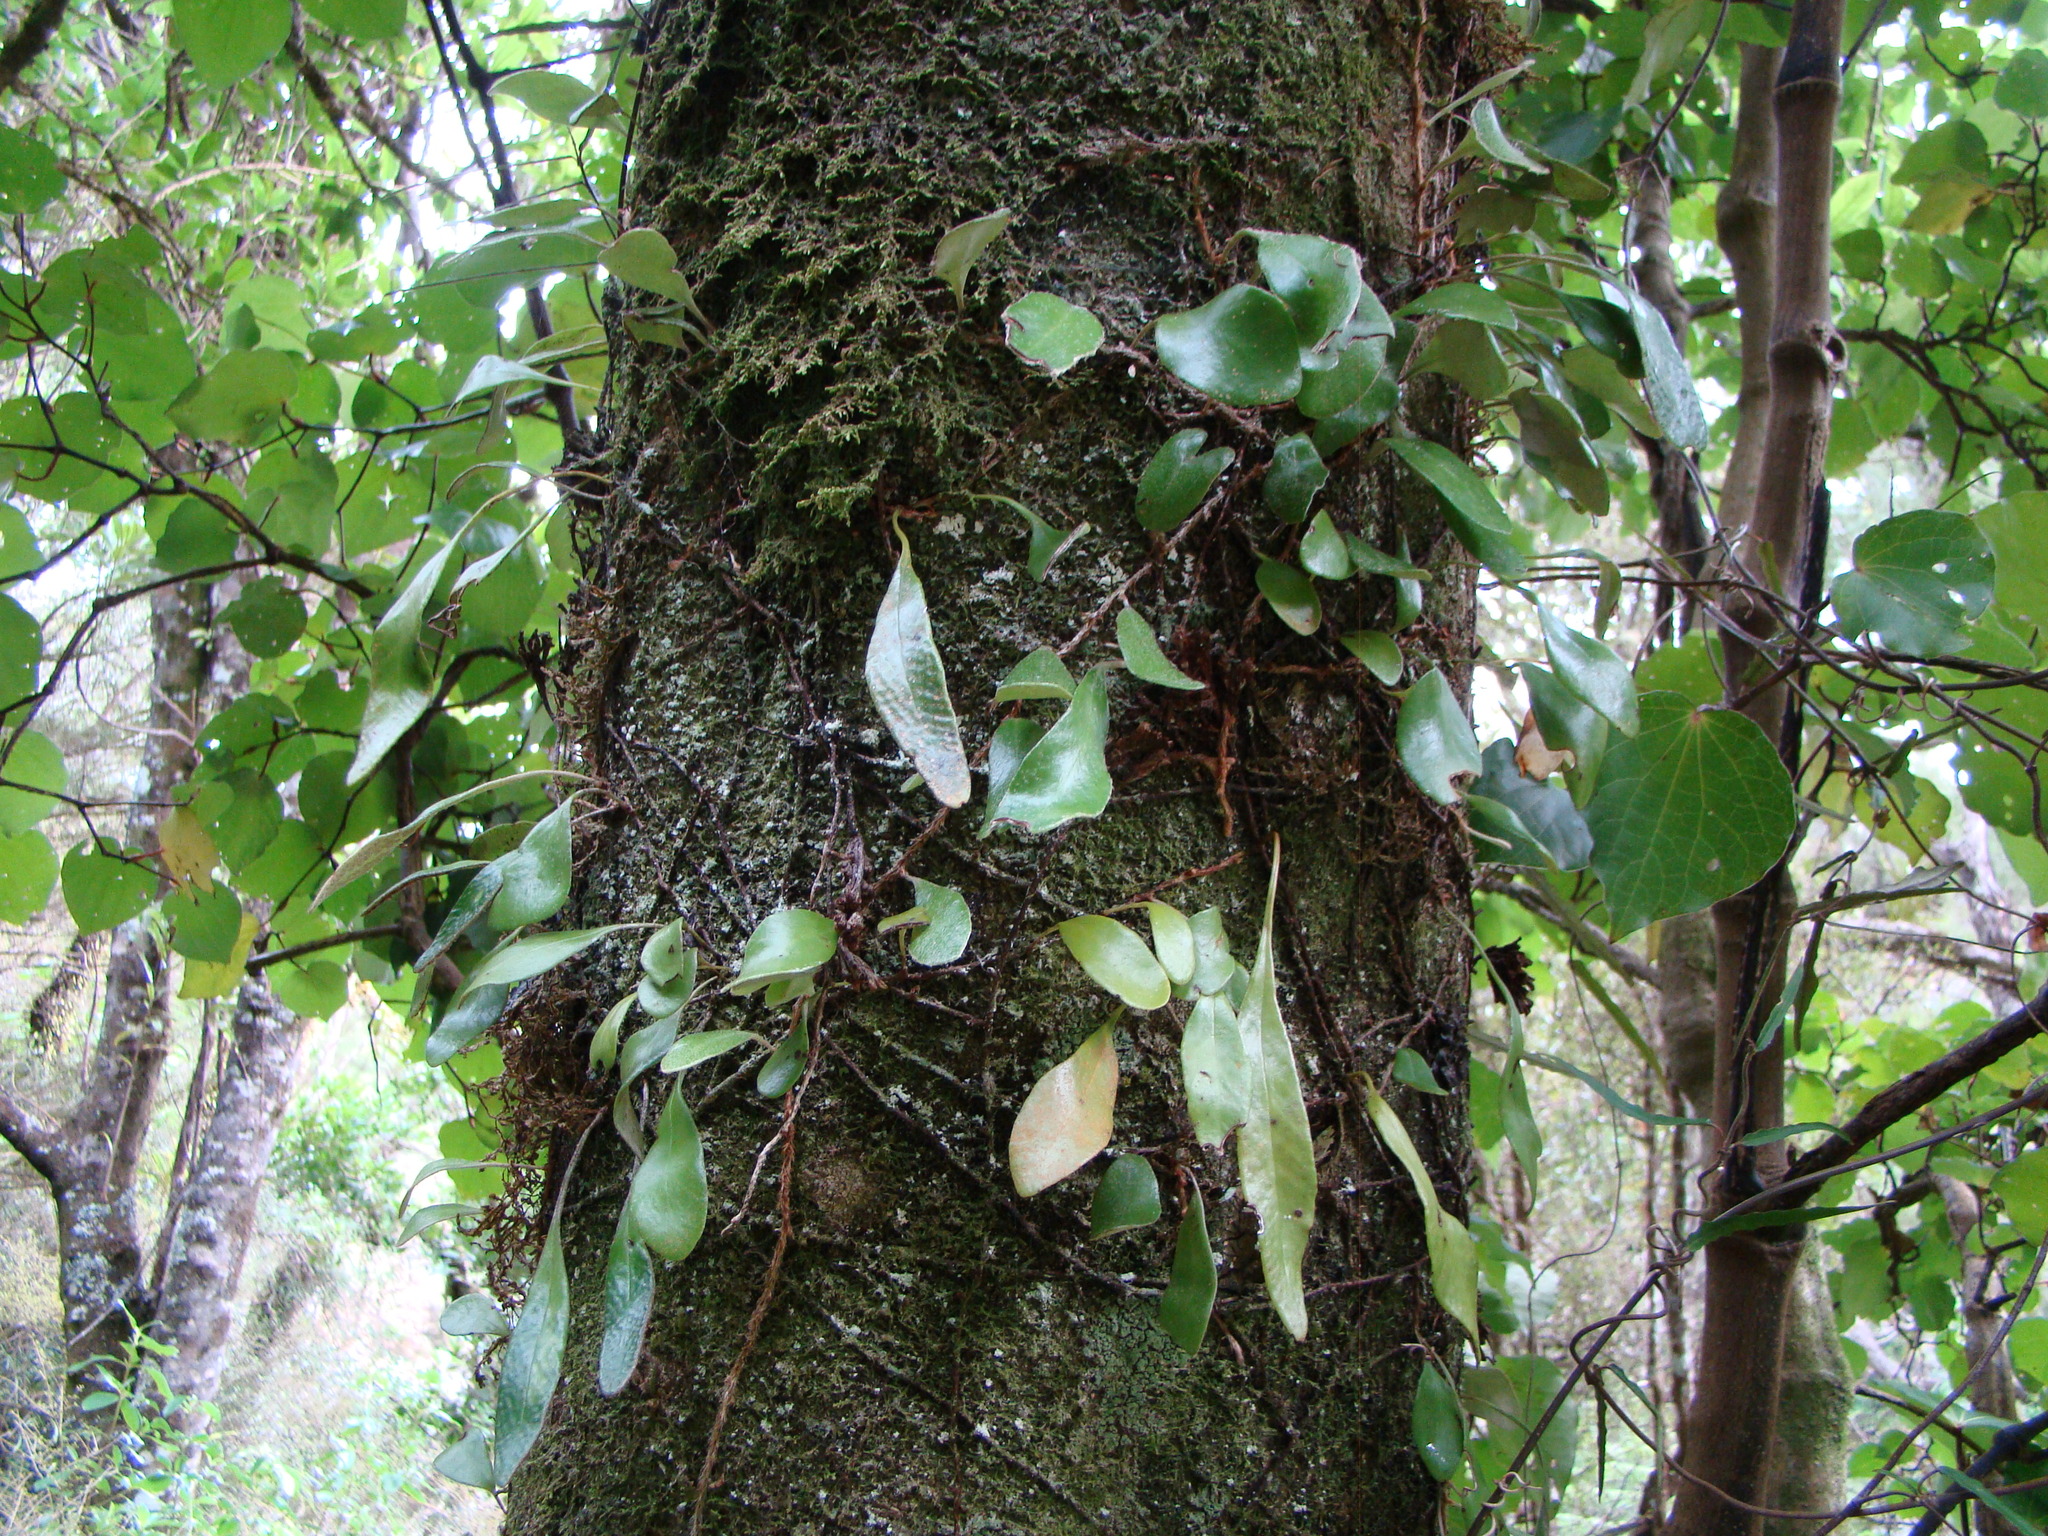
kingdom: Plantae
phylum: Tracheophyta
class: Polypodiopsida
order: Polypodiales
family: Polypodiaceae
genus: Pyrrosia
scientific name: Pyrrosia eleagnifolia
